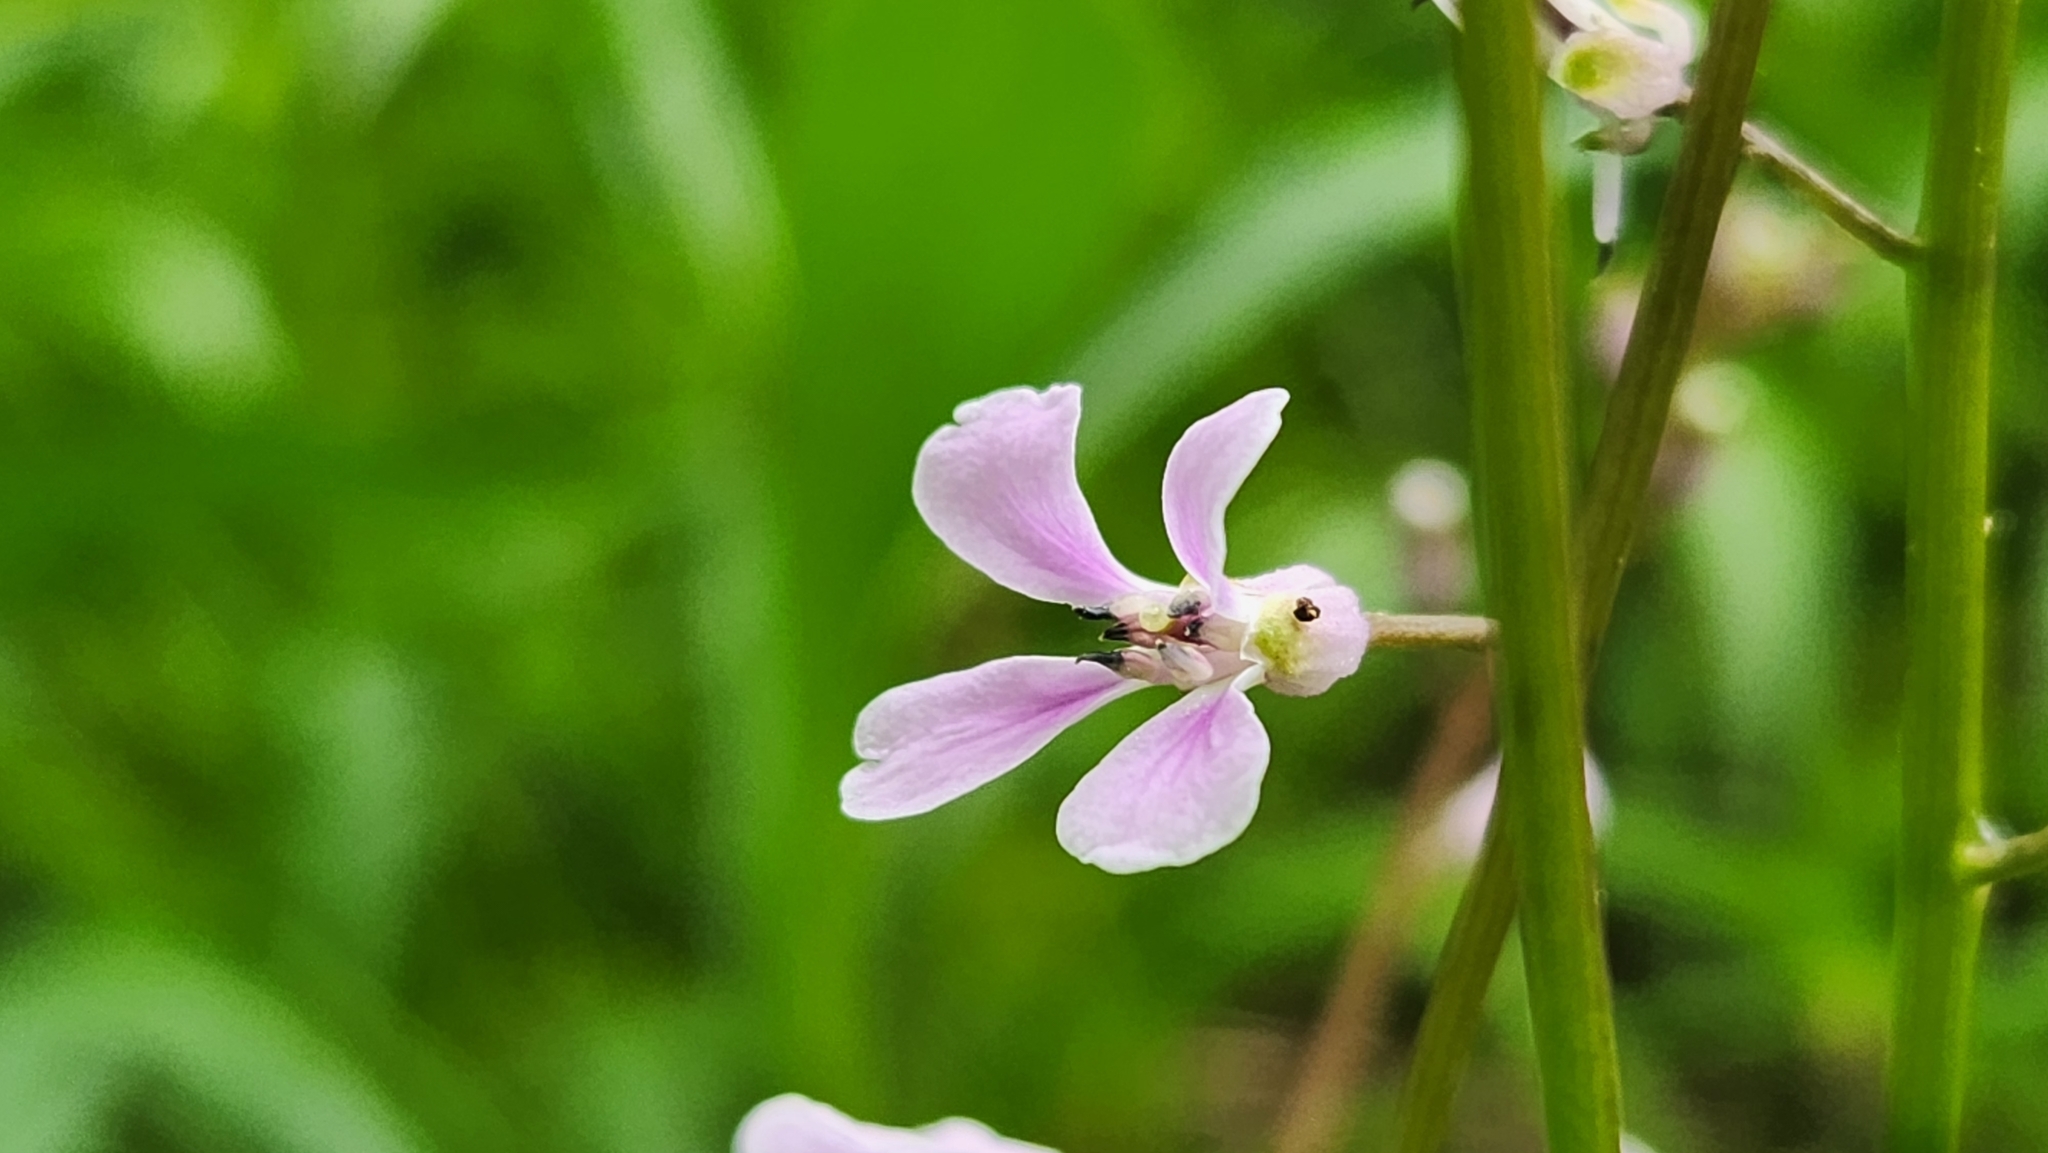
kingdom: Plantae
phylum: Tracheophyta
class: Magnoliopsida
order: Brassicales
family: Brassicaceae
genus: Iodanthus
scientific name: Iodanthus pinnatifidus
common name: Violet rocket
